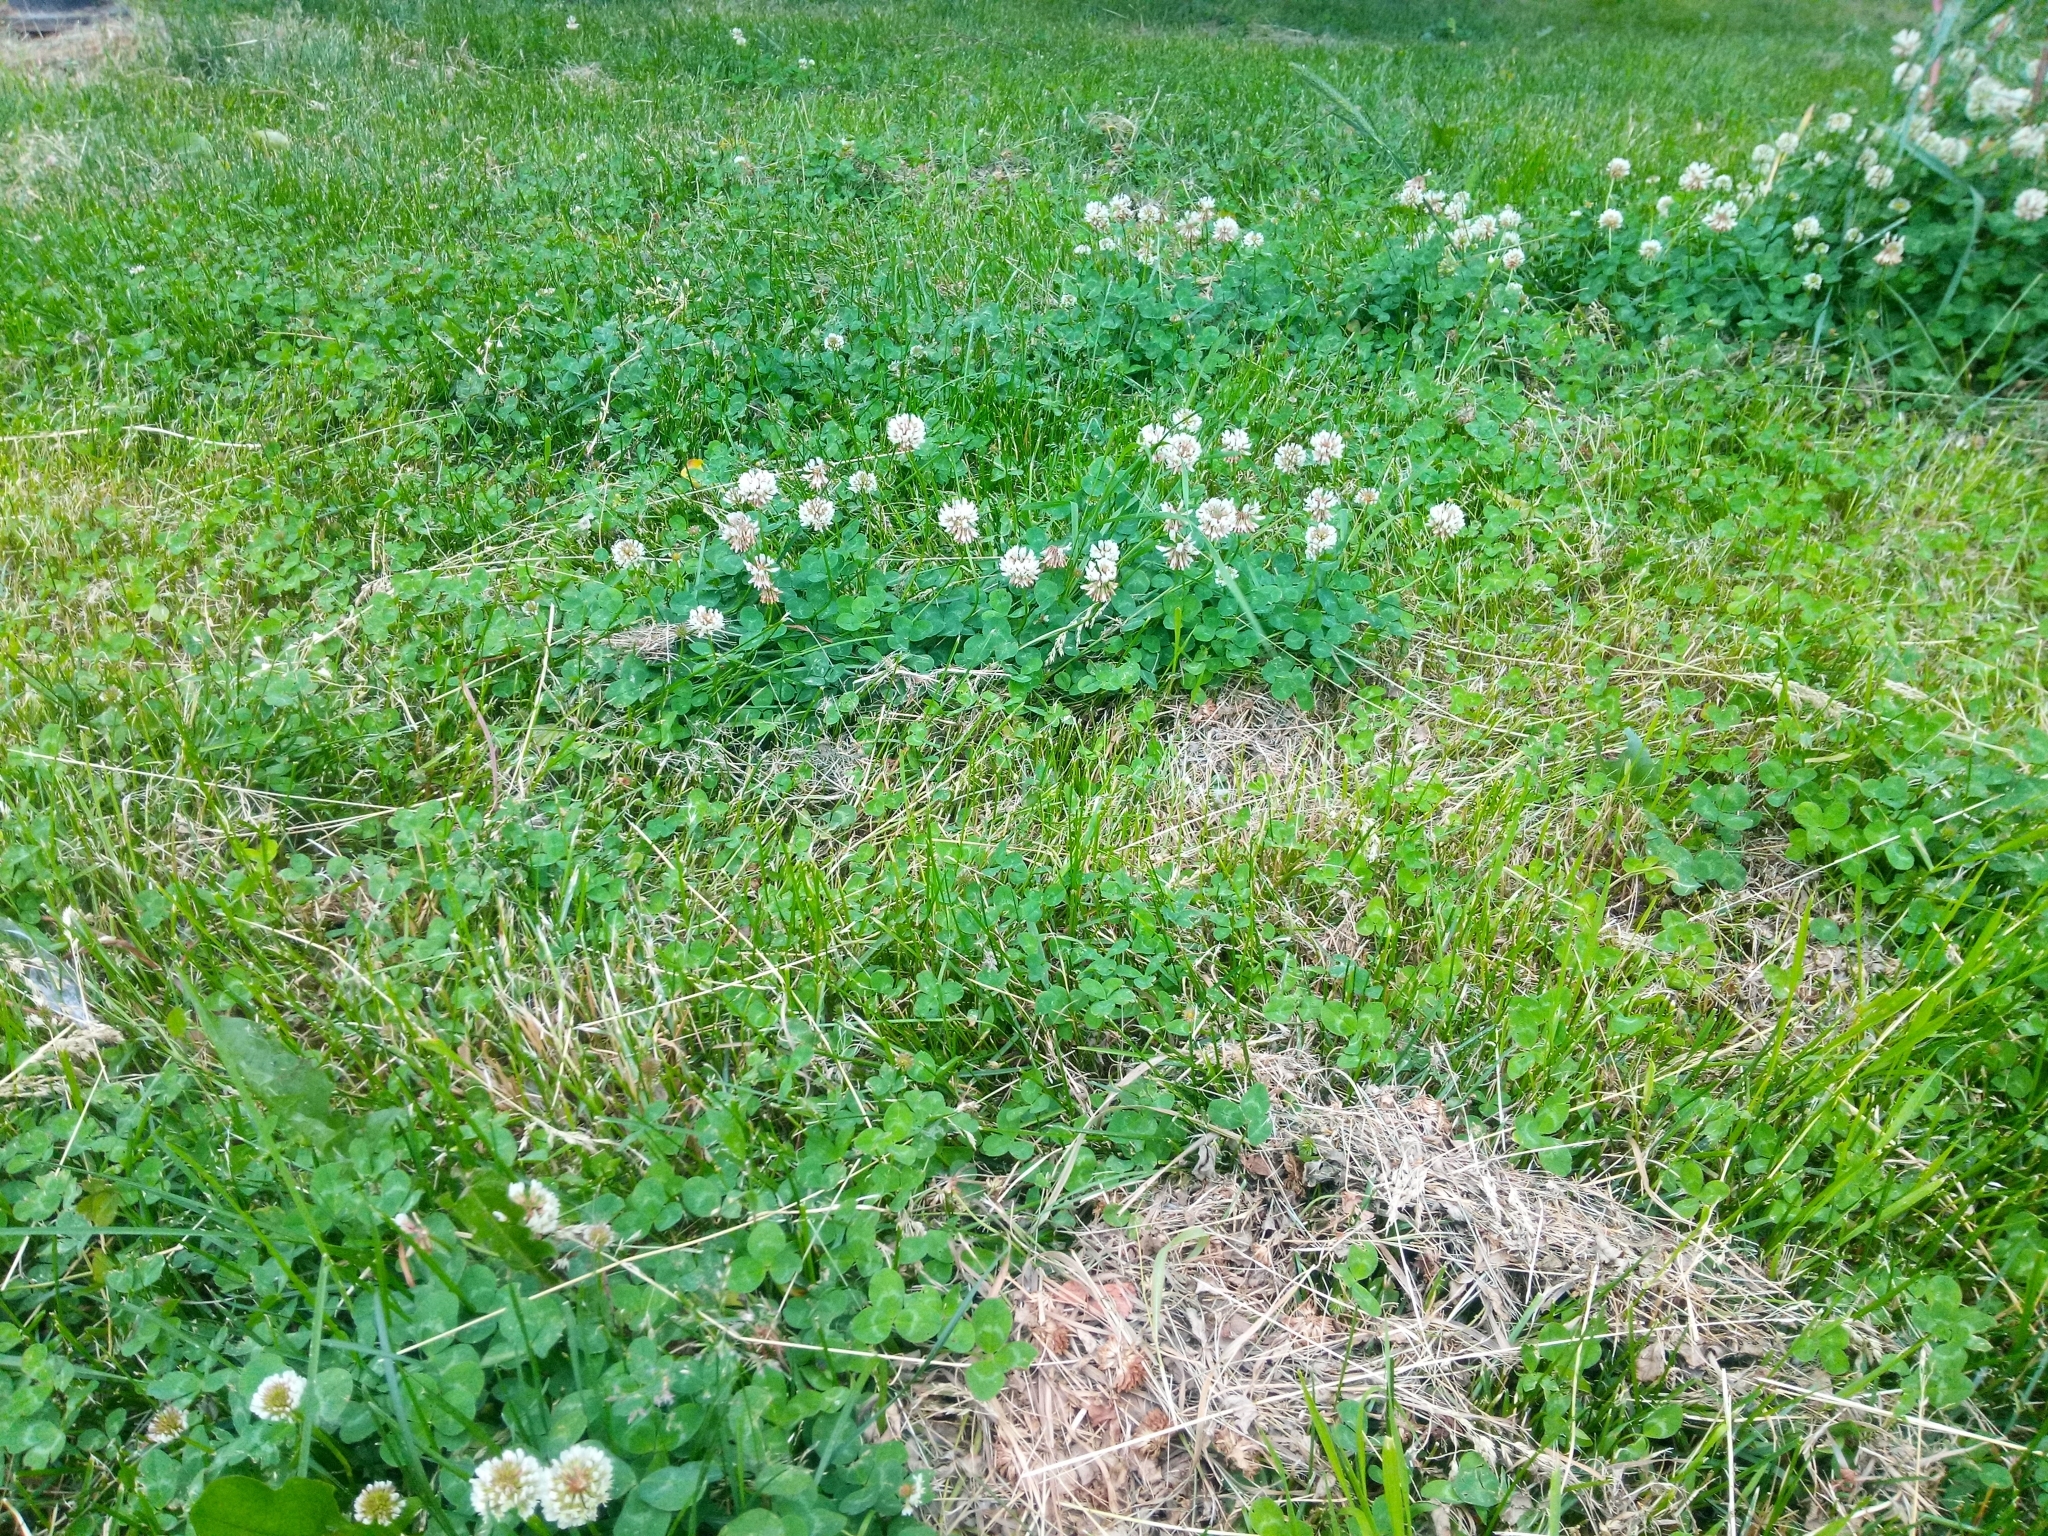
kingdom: Plantae
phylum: Tracheophyta
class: Magnoliopsida
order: Fabales
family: Fabaceae
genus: Trifolium
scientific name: Trifolium repens
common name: White clover
